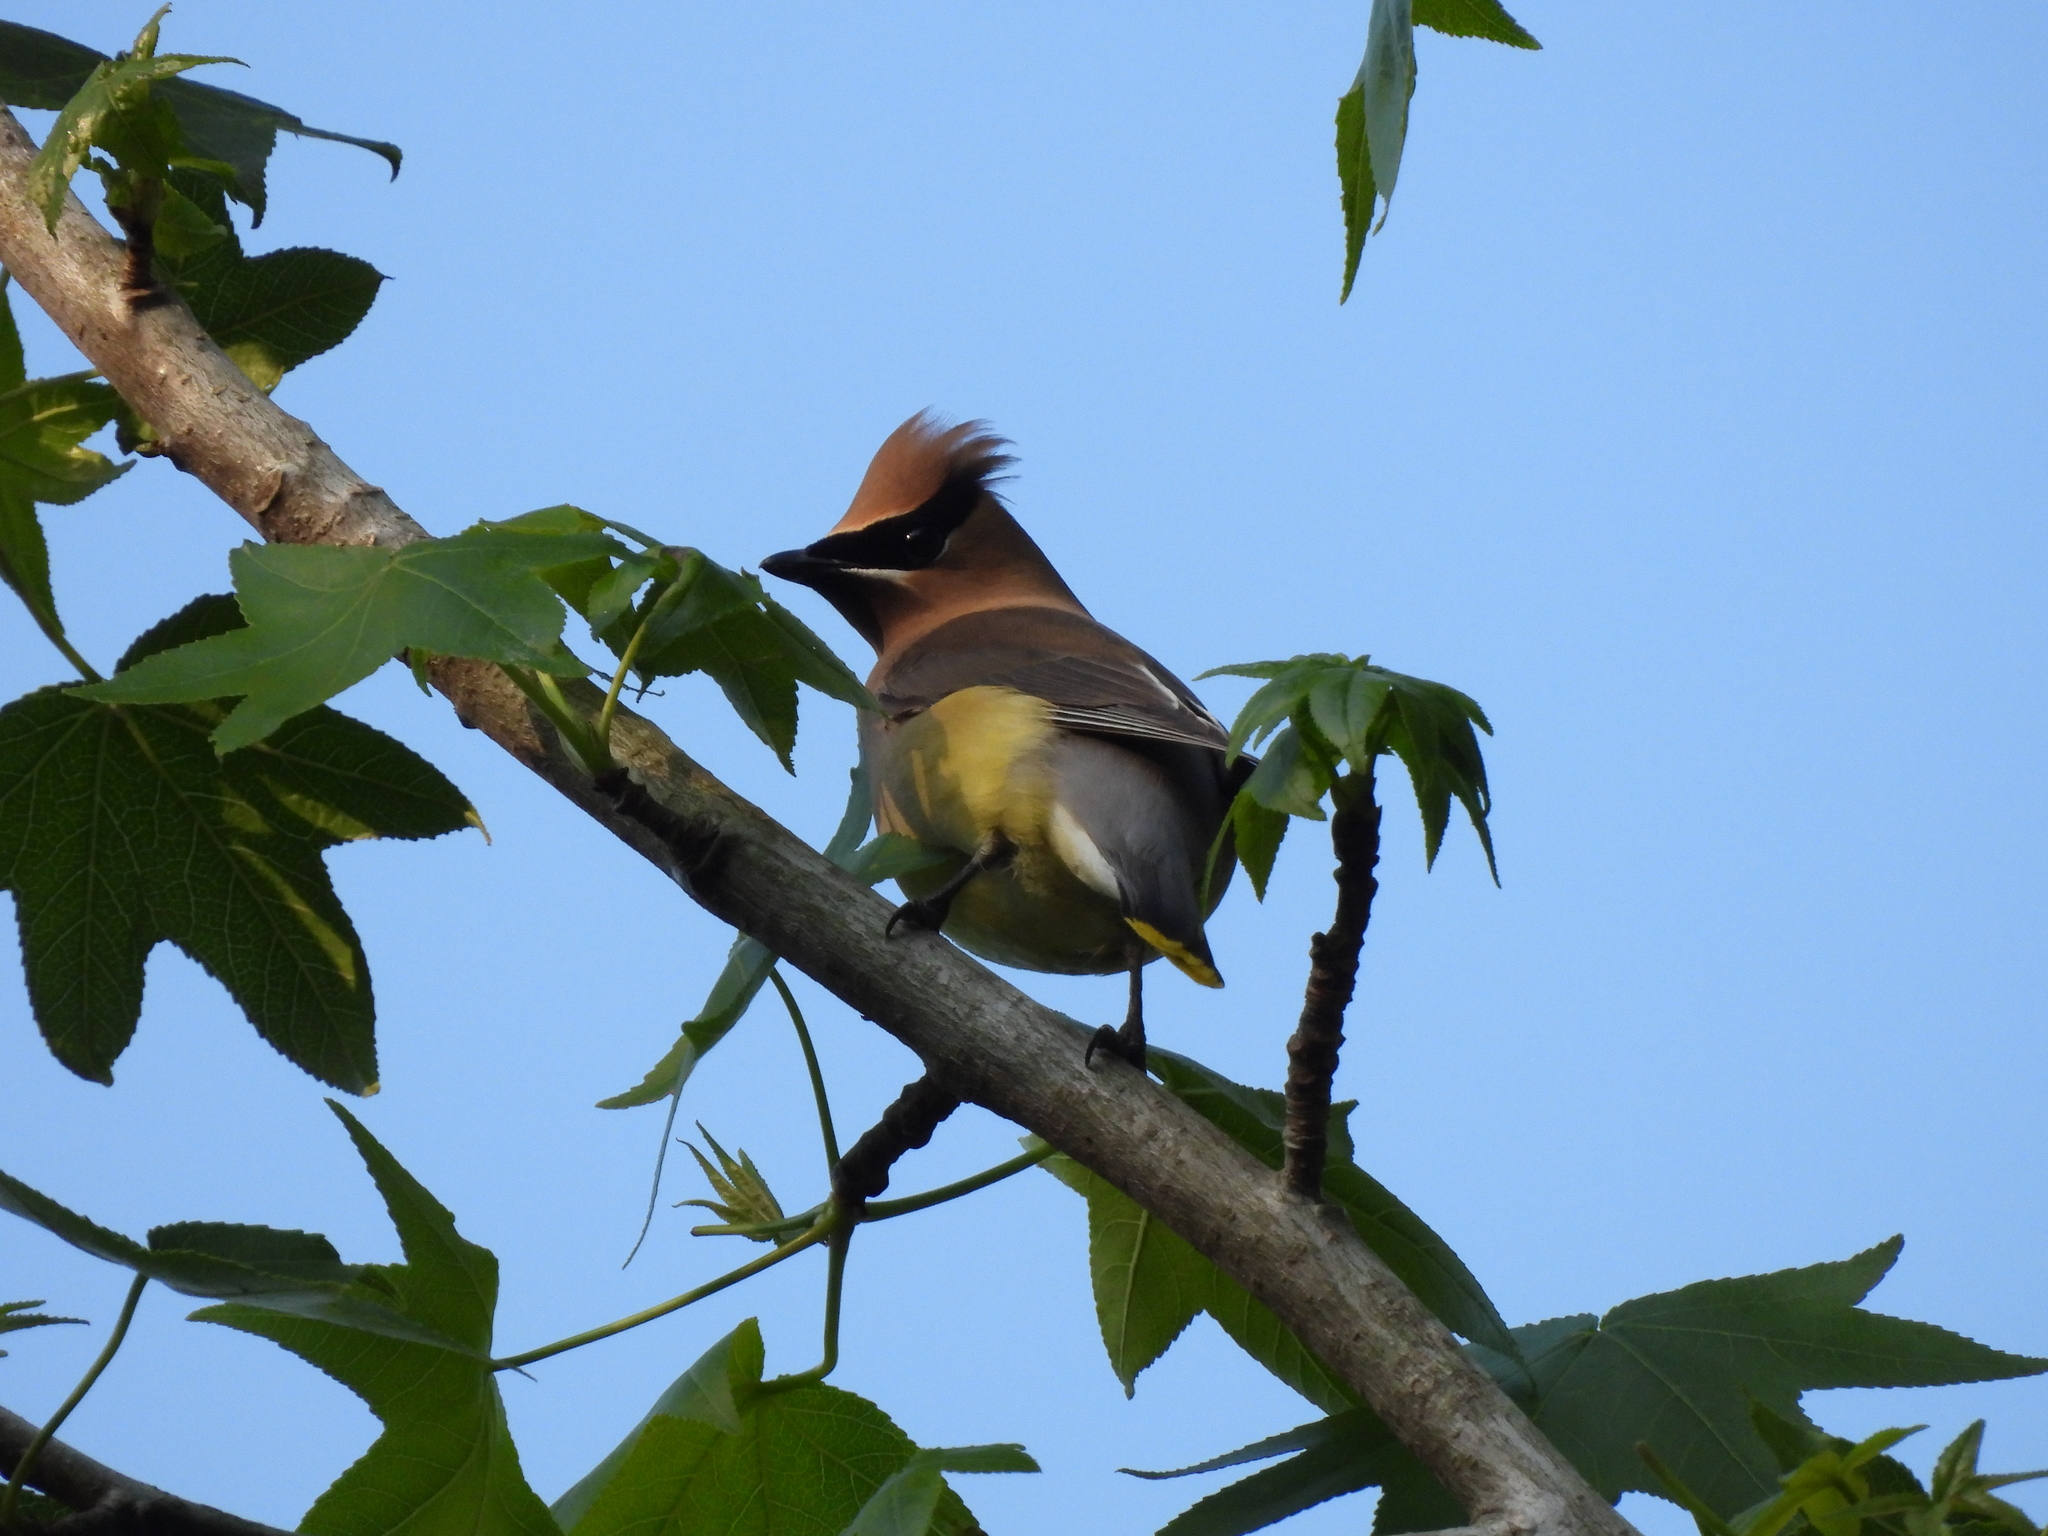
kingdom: Animalia
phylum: Chordata
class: Aves
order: Passeriformes
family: Bombycillidae
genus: Bombycilla
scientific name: Bombycilla cedrorum
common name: Cedar waxwing
